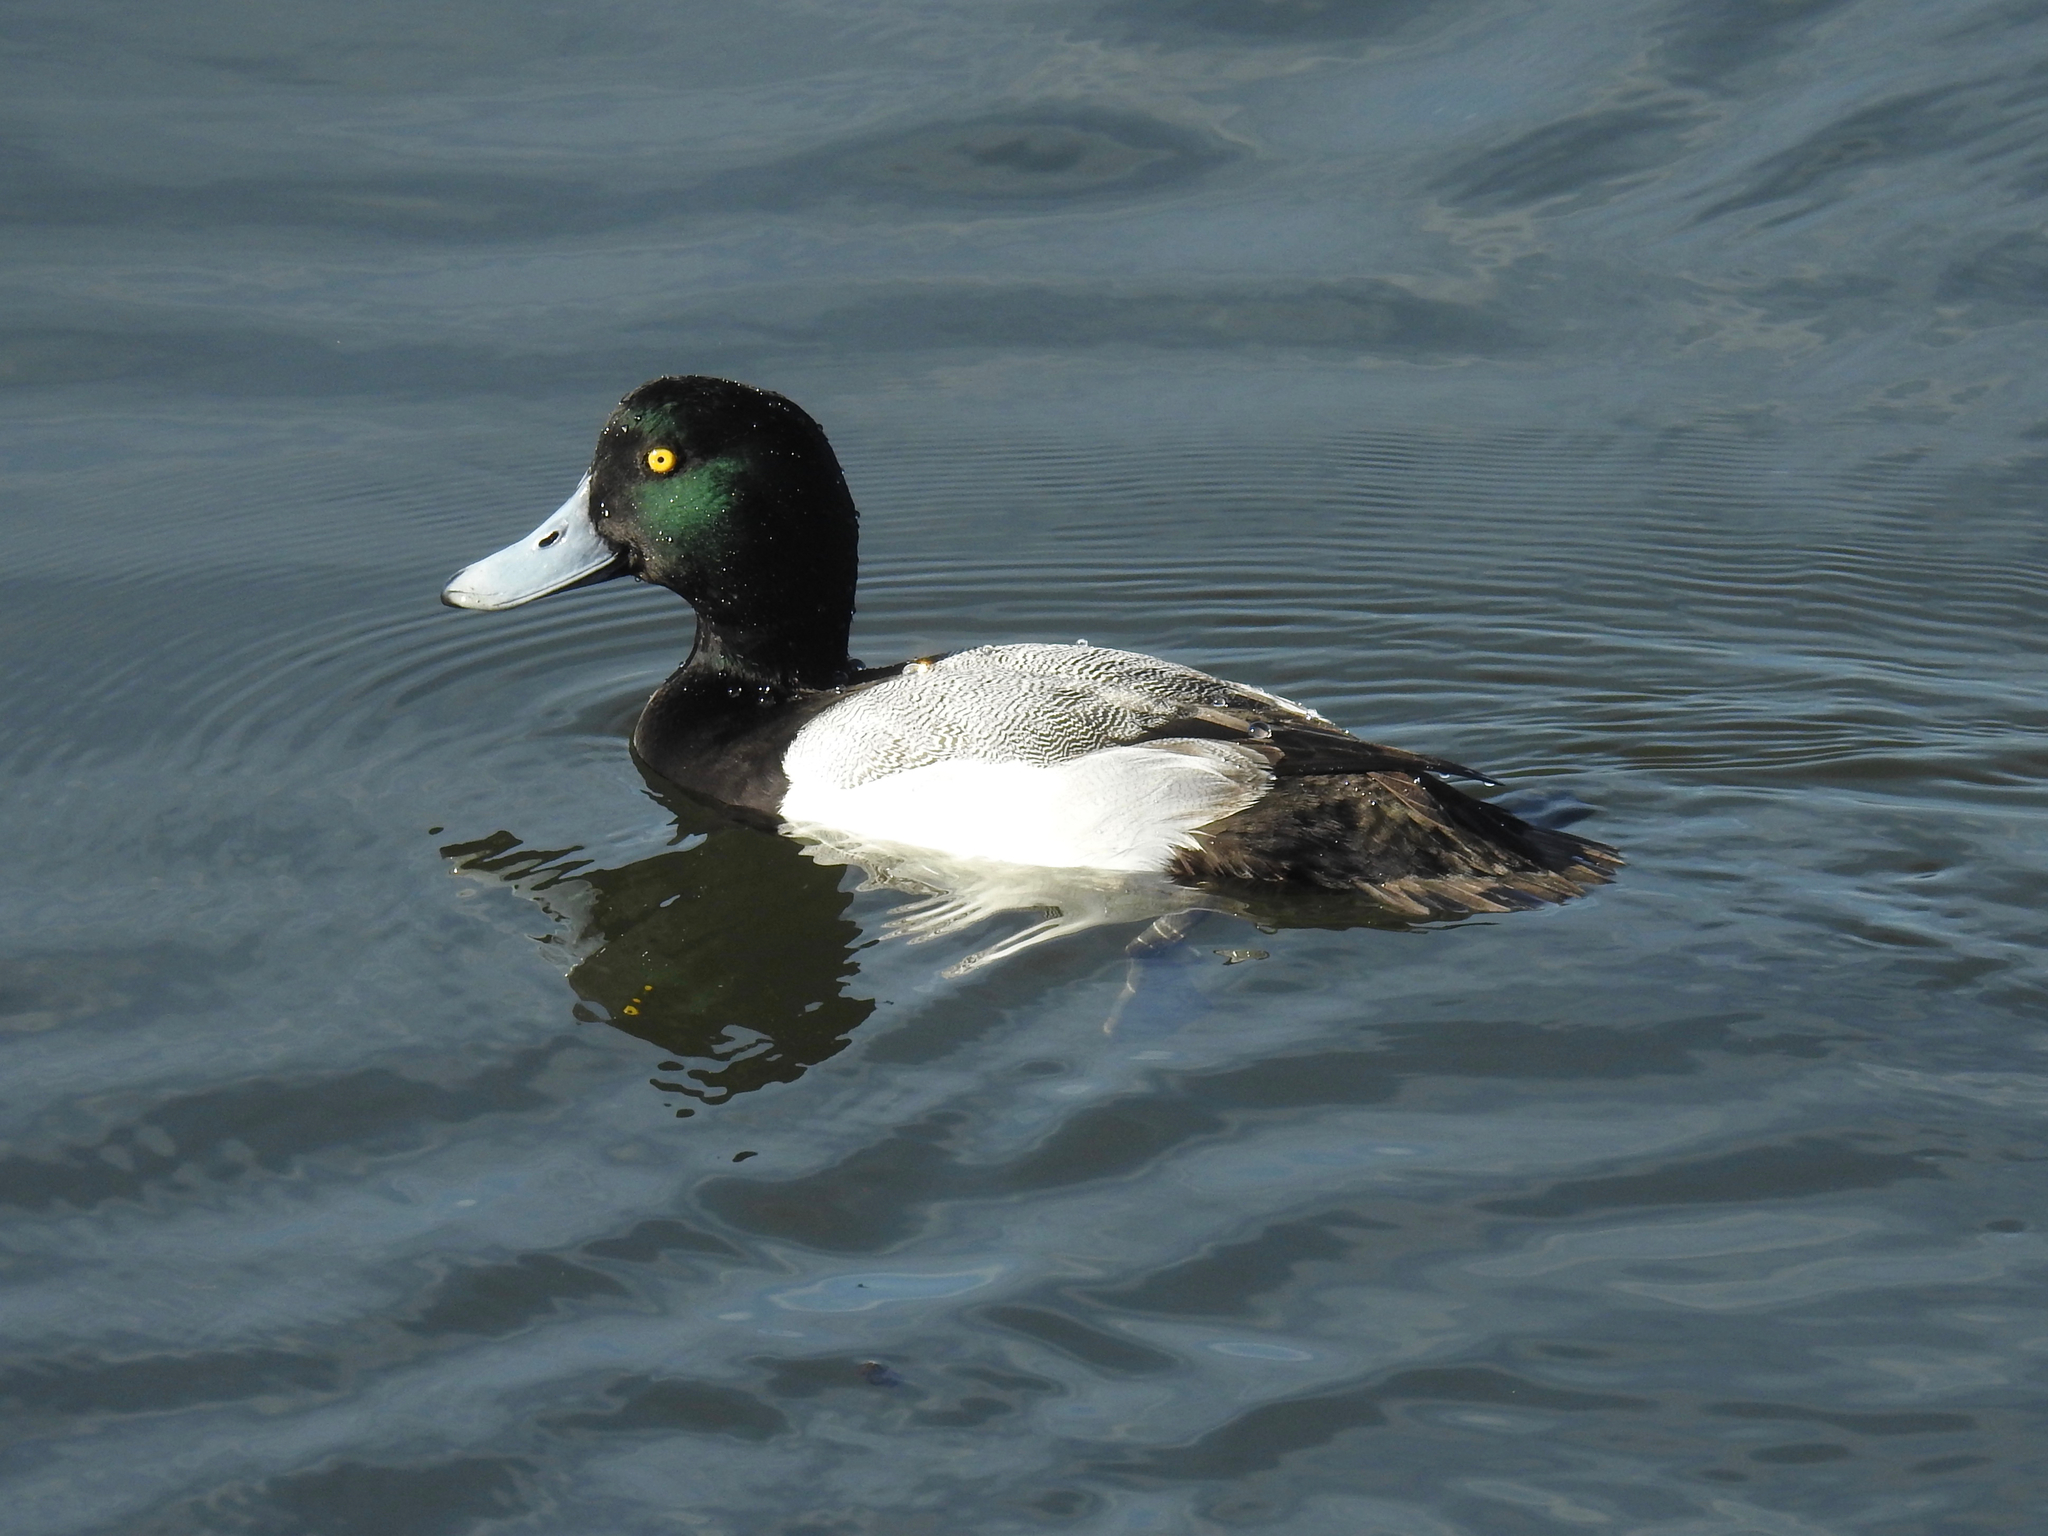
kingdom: Animalia
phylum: Chordata
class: Aves
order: Anseriformes
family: Anatidae
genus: Aythya
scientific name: Aythya marila
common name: Greater scaup
